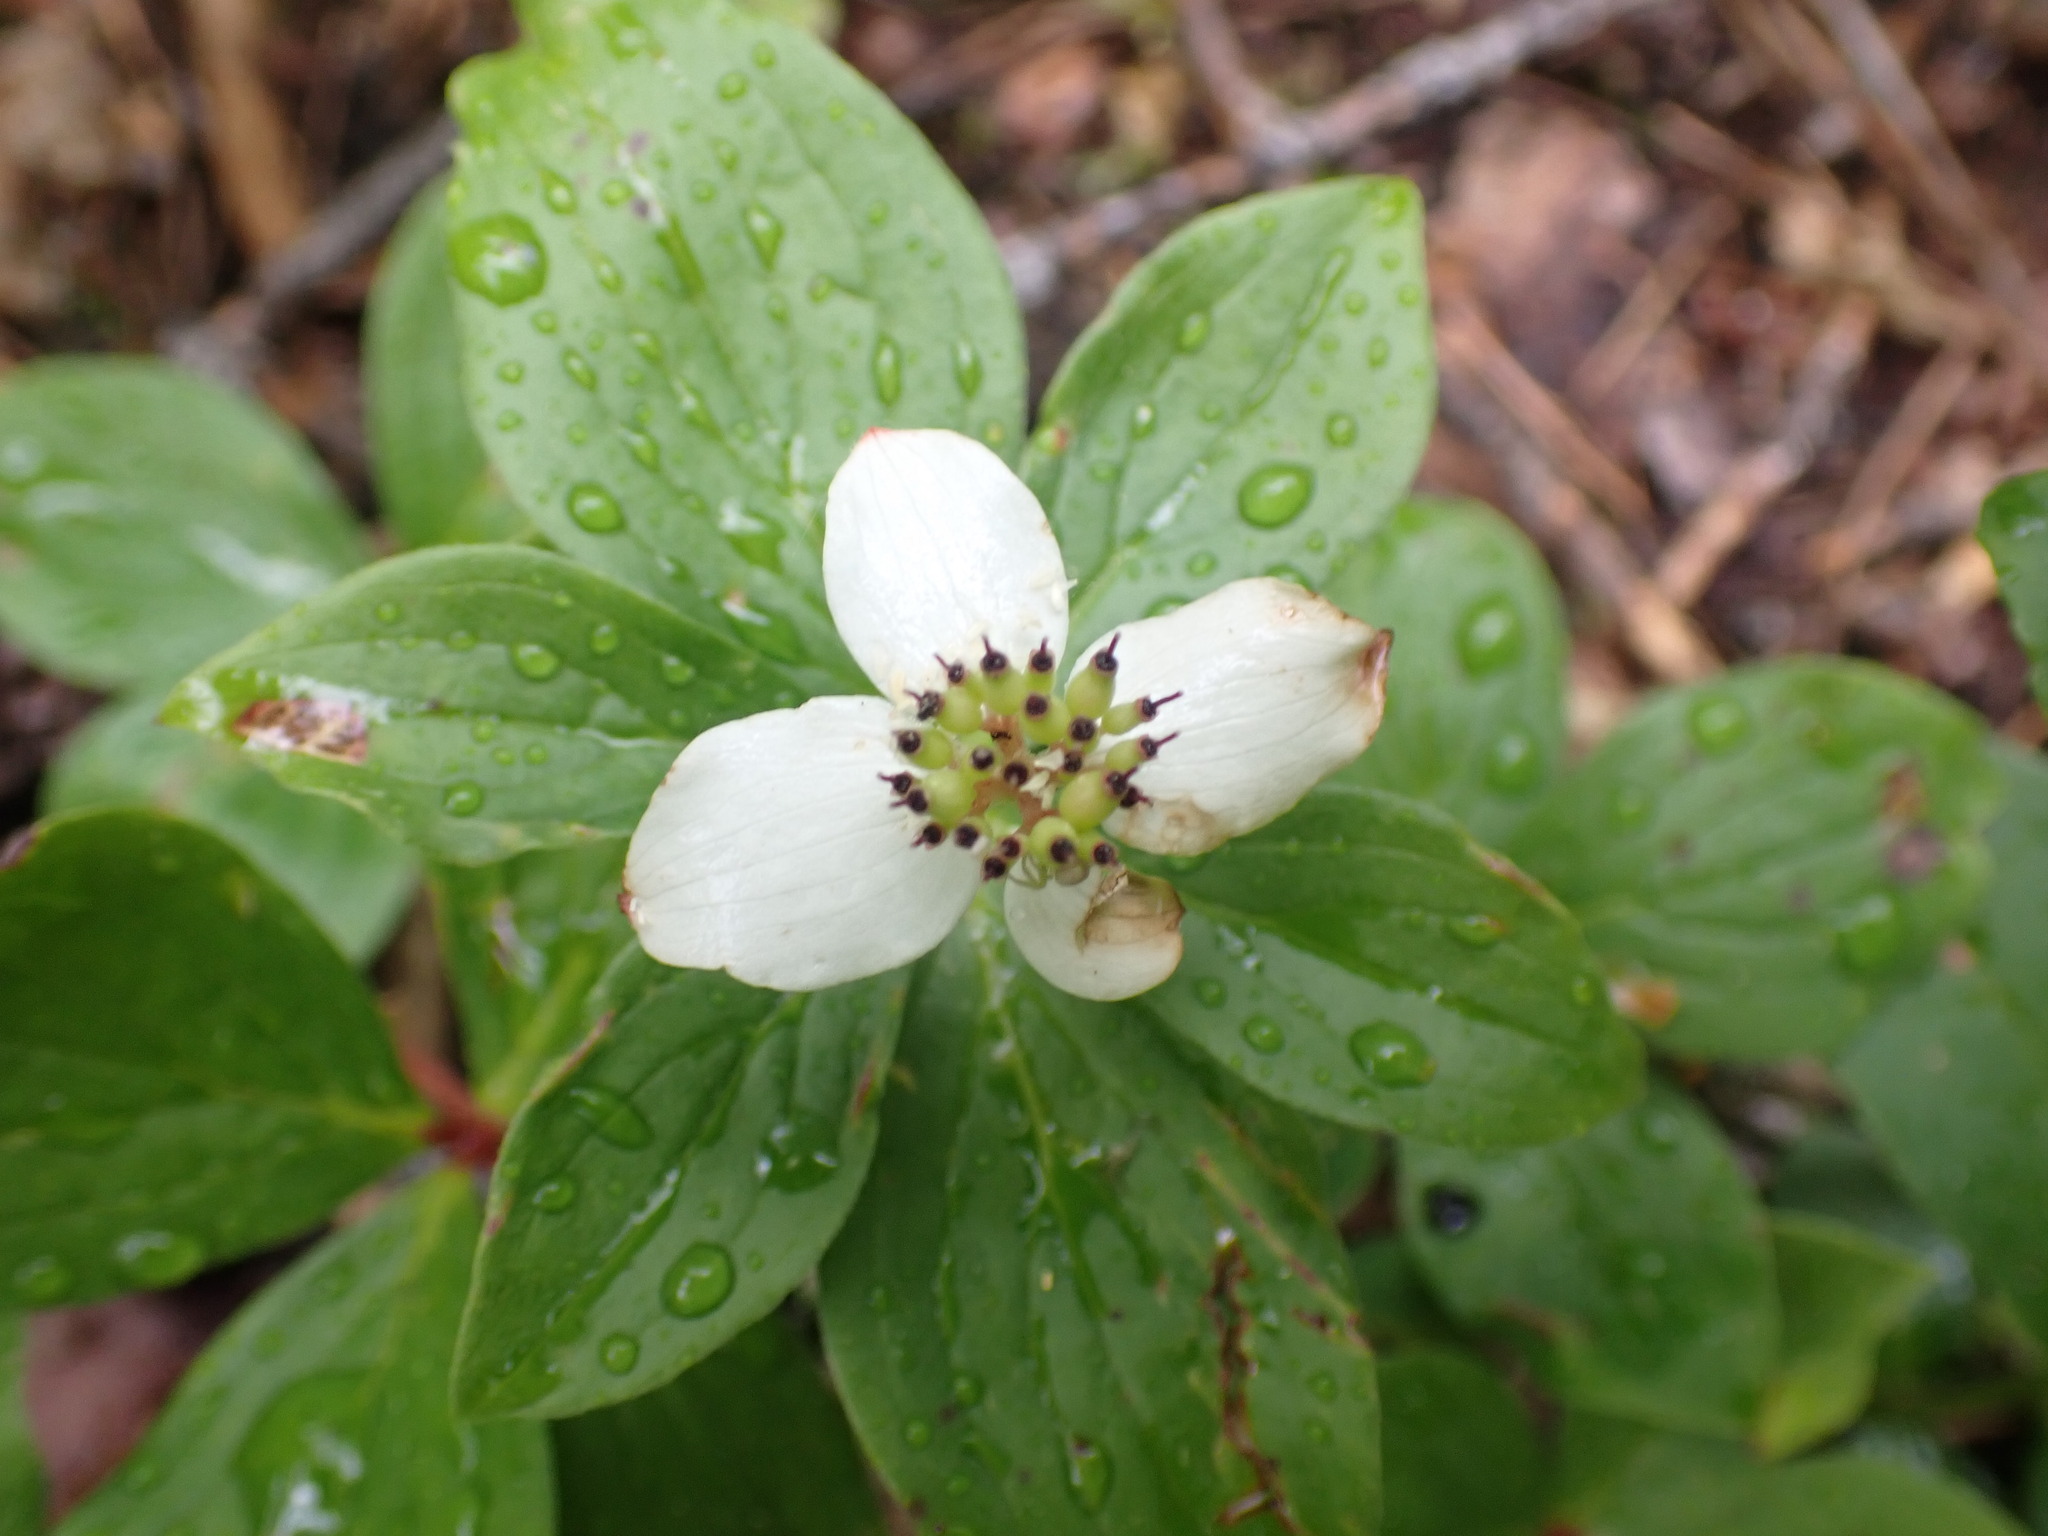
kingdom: Plantae
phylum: Tracheophyta
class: Magnoliopsida
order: Cornales
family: Cornaceae
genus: Cornus
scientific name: Cornus canadensis
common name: Creeping dogwood
